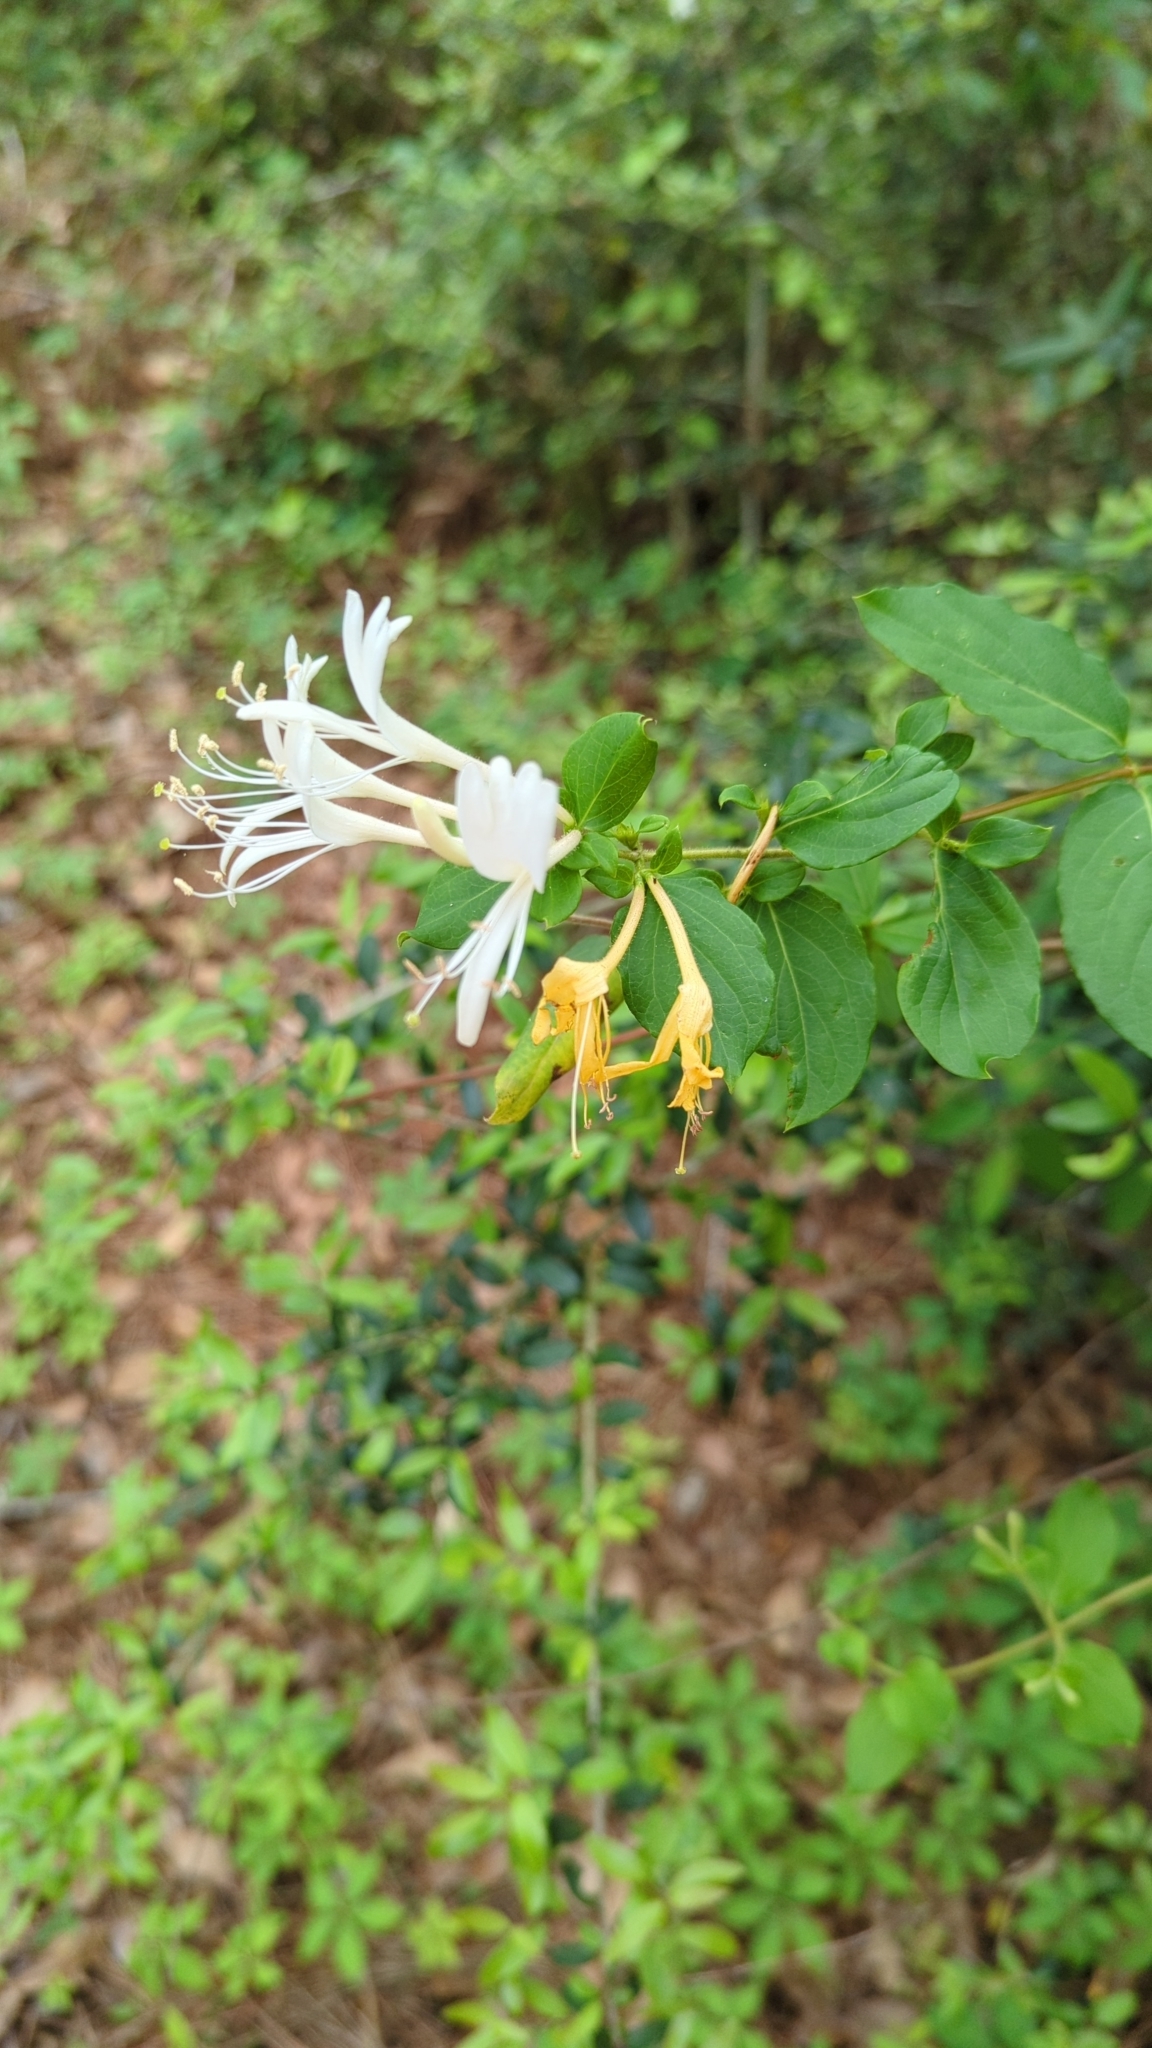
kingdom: Plantae
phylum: Tracheophyta
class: Magnoliopsida
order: Dipsacales
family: Caprifoliaceae
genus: Lonicera
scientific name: Lonicera japonica
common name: Japanese honeysuckle
